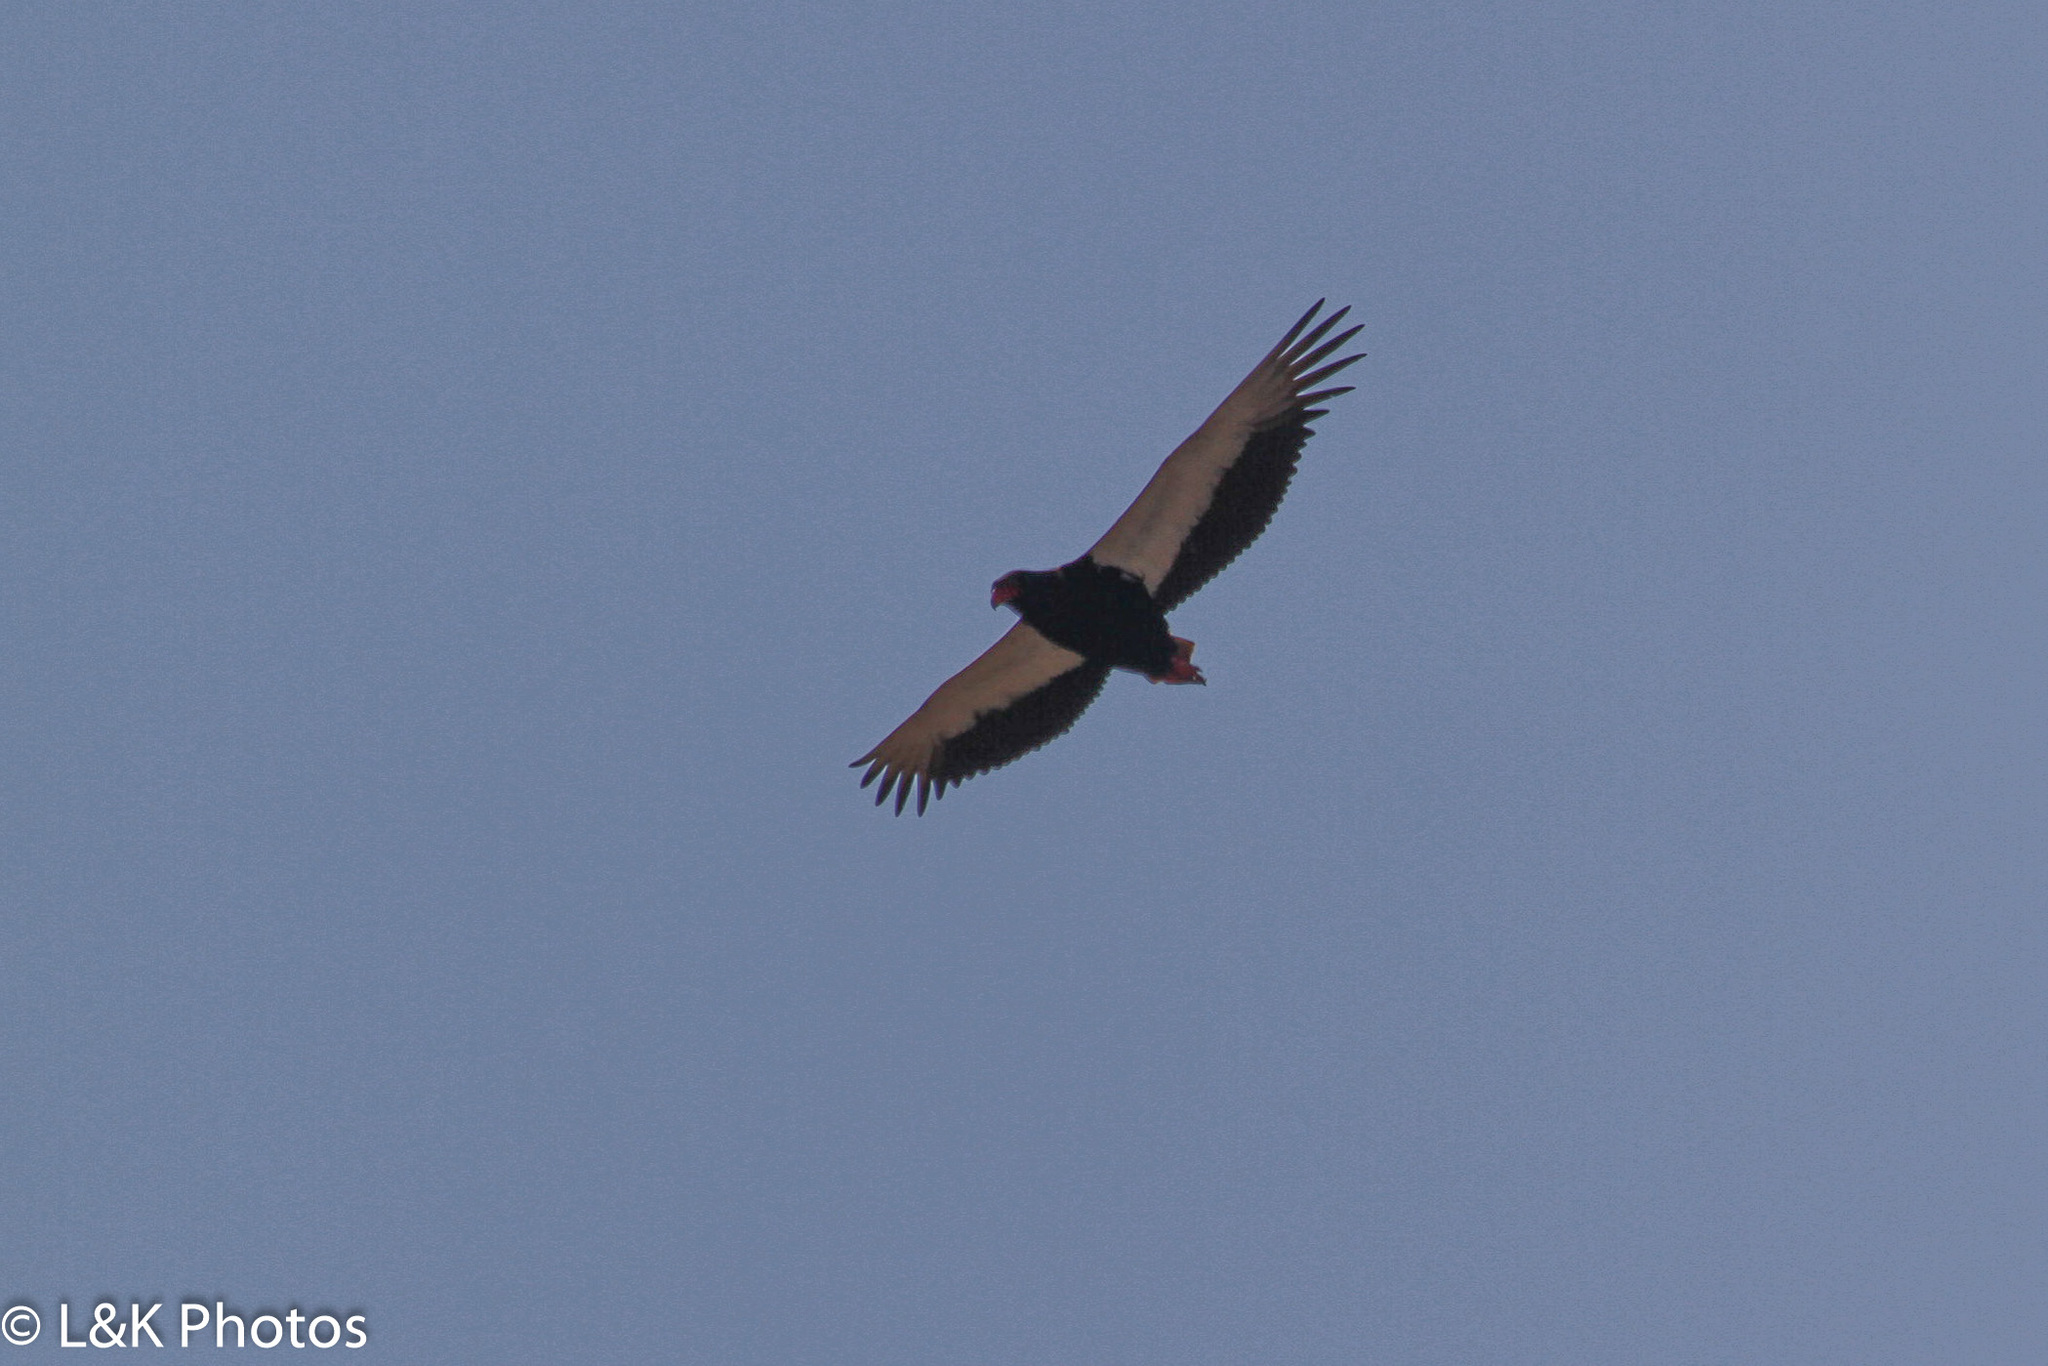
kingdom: Animalia
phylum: Chordata
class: Aves
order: Accipitriformes
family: Accipitridae
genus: Terathopius
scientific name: Terathopius ecaudatus
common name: Bateleur
